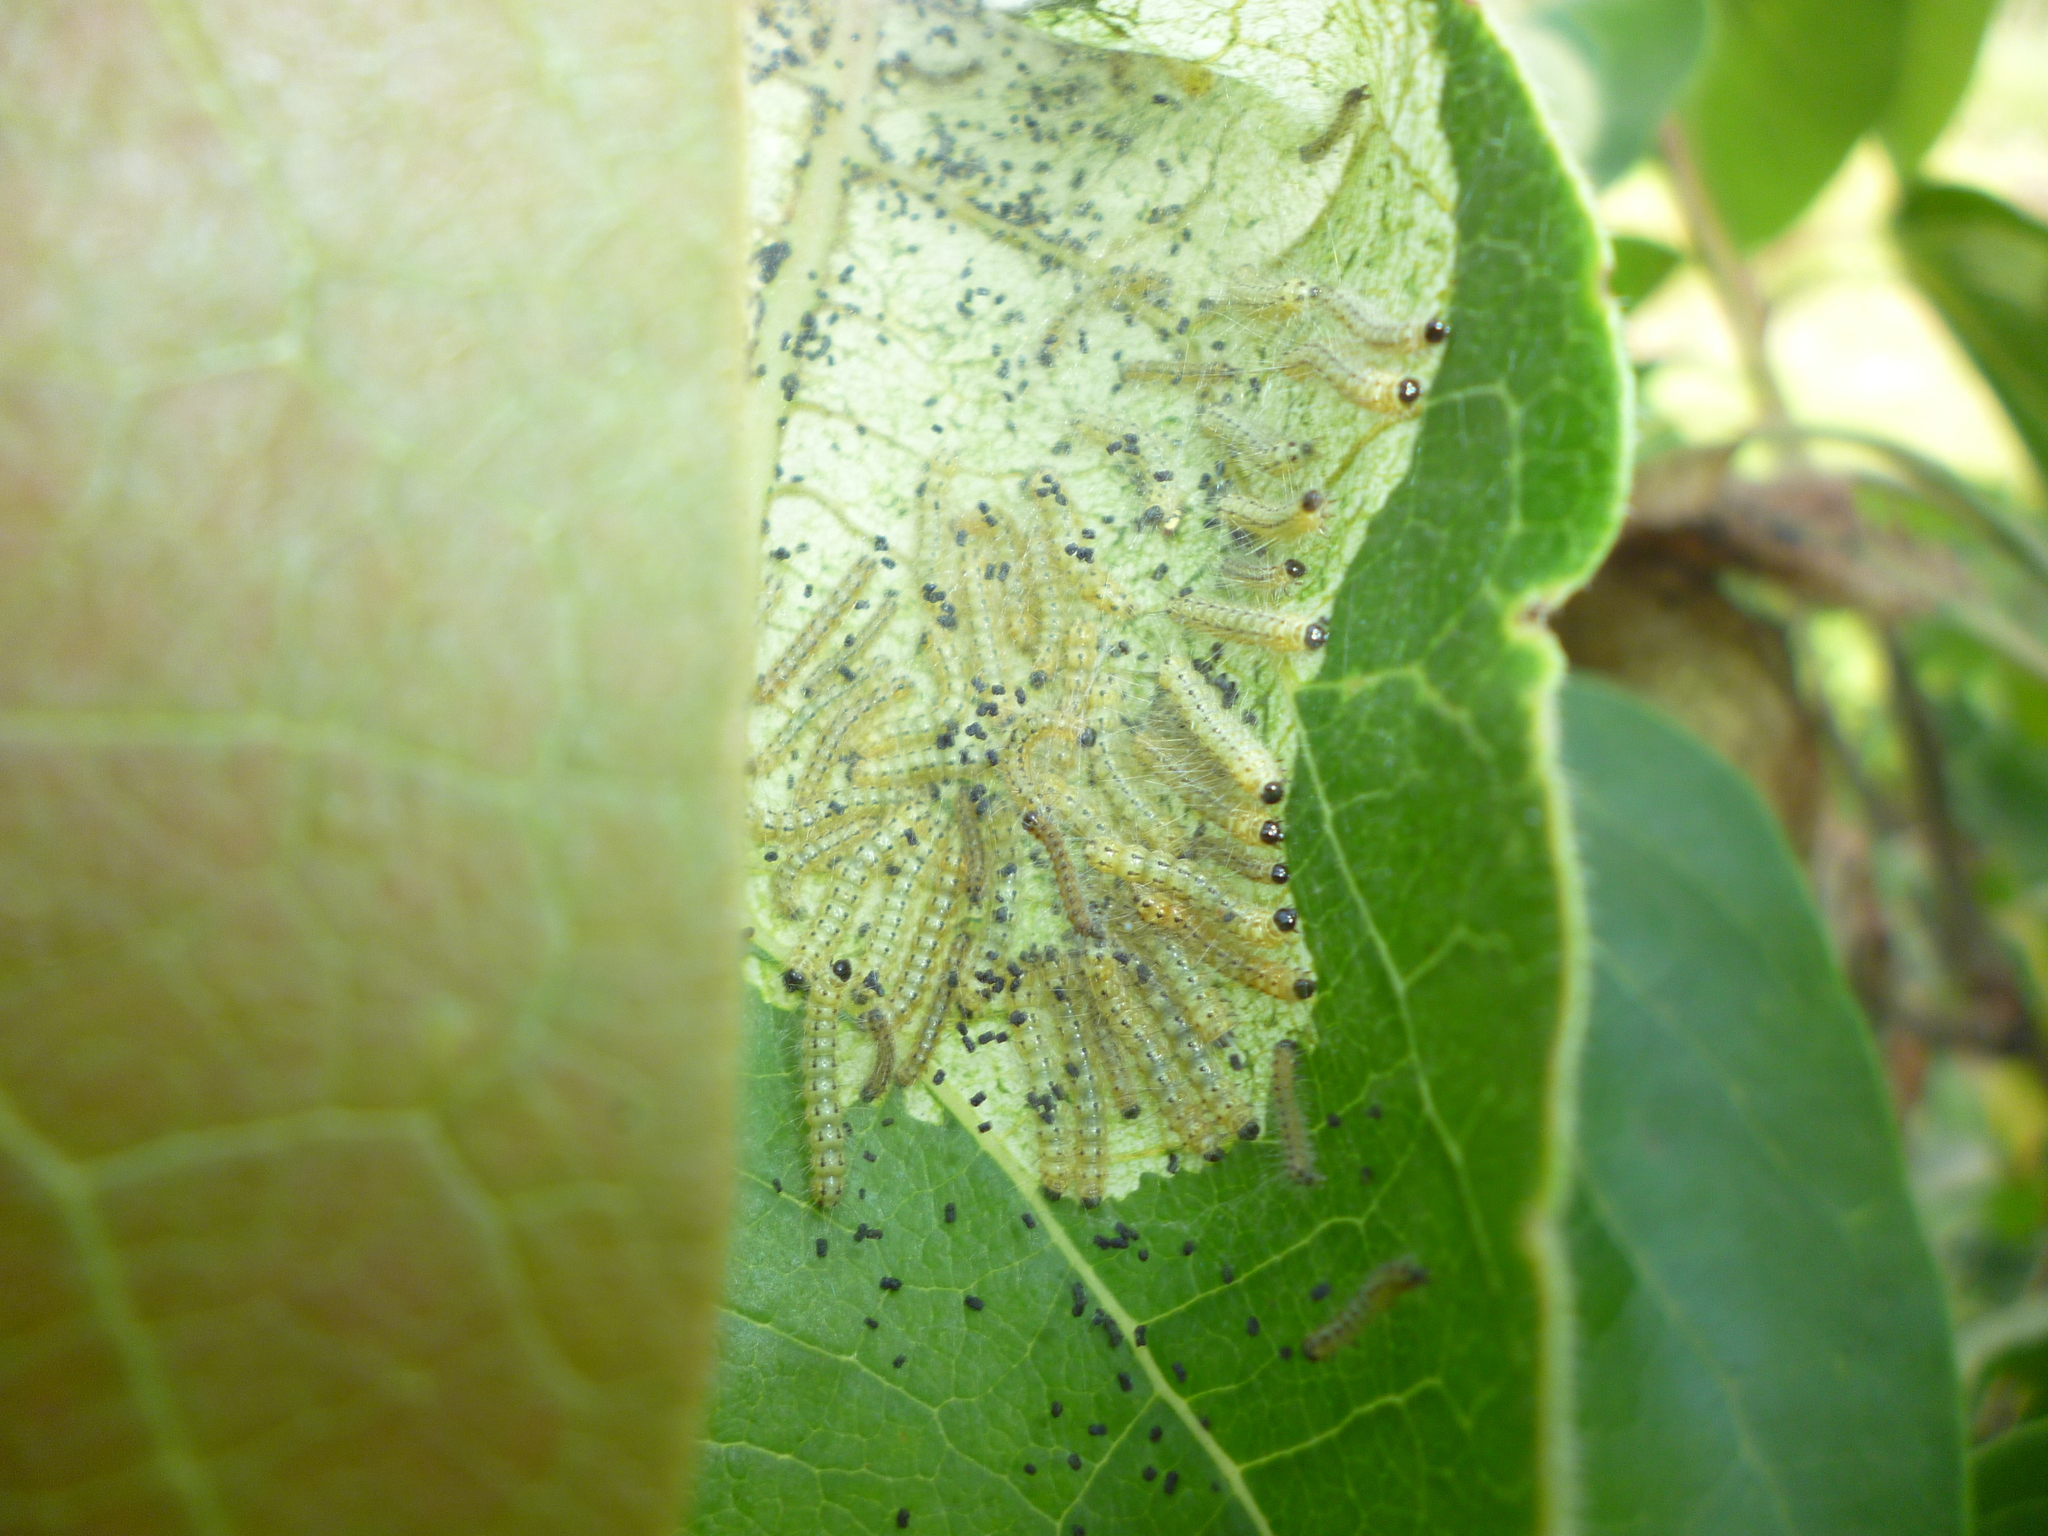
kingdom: Animalia
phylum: Arthropoda
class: Insecta
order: Lepidoptera
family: Erebidae
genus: Hyphantria
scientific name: Hyphantria cunea
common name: American white moth
